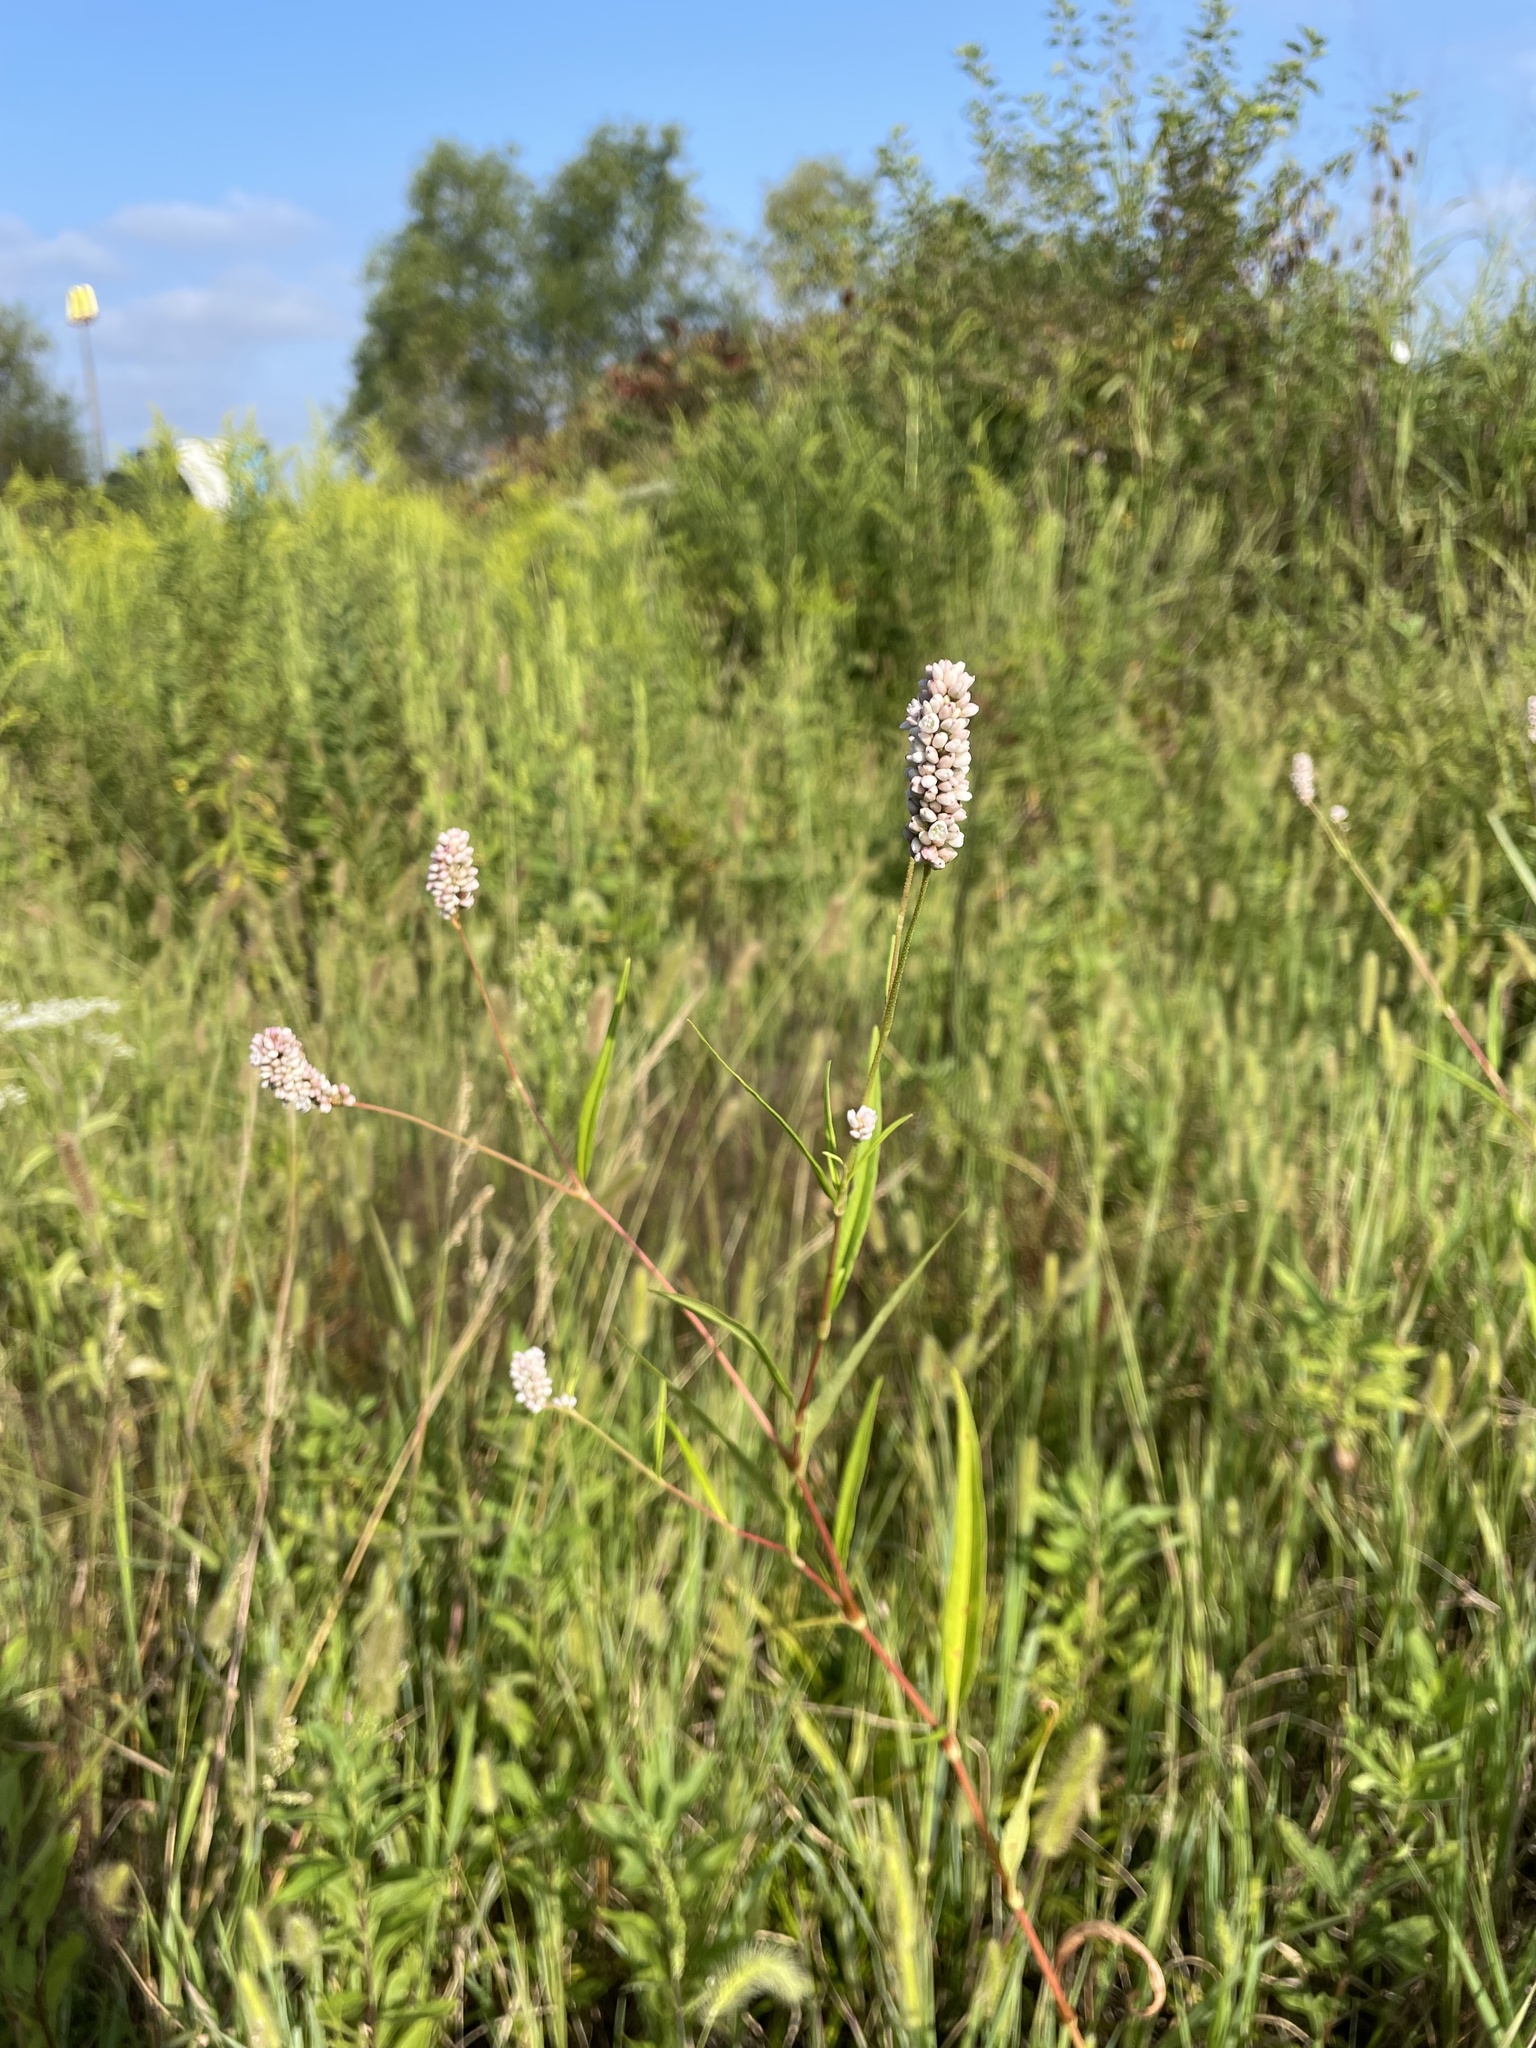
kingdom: Plantae
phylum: Tracheophyta
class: Magnoliopsida
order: Caryophyllales
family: Polygonaceae
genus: Persicaria
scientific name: Persicaria pensylvanica
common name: Pinkweed
